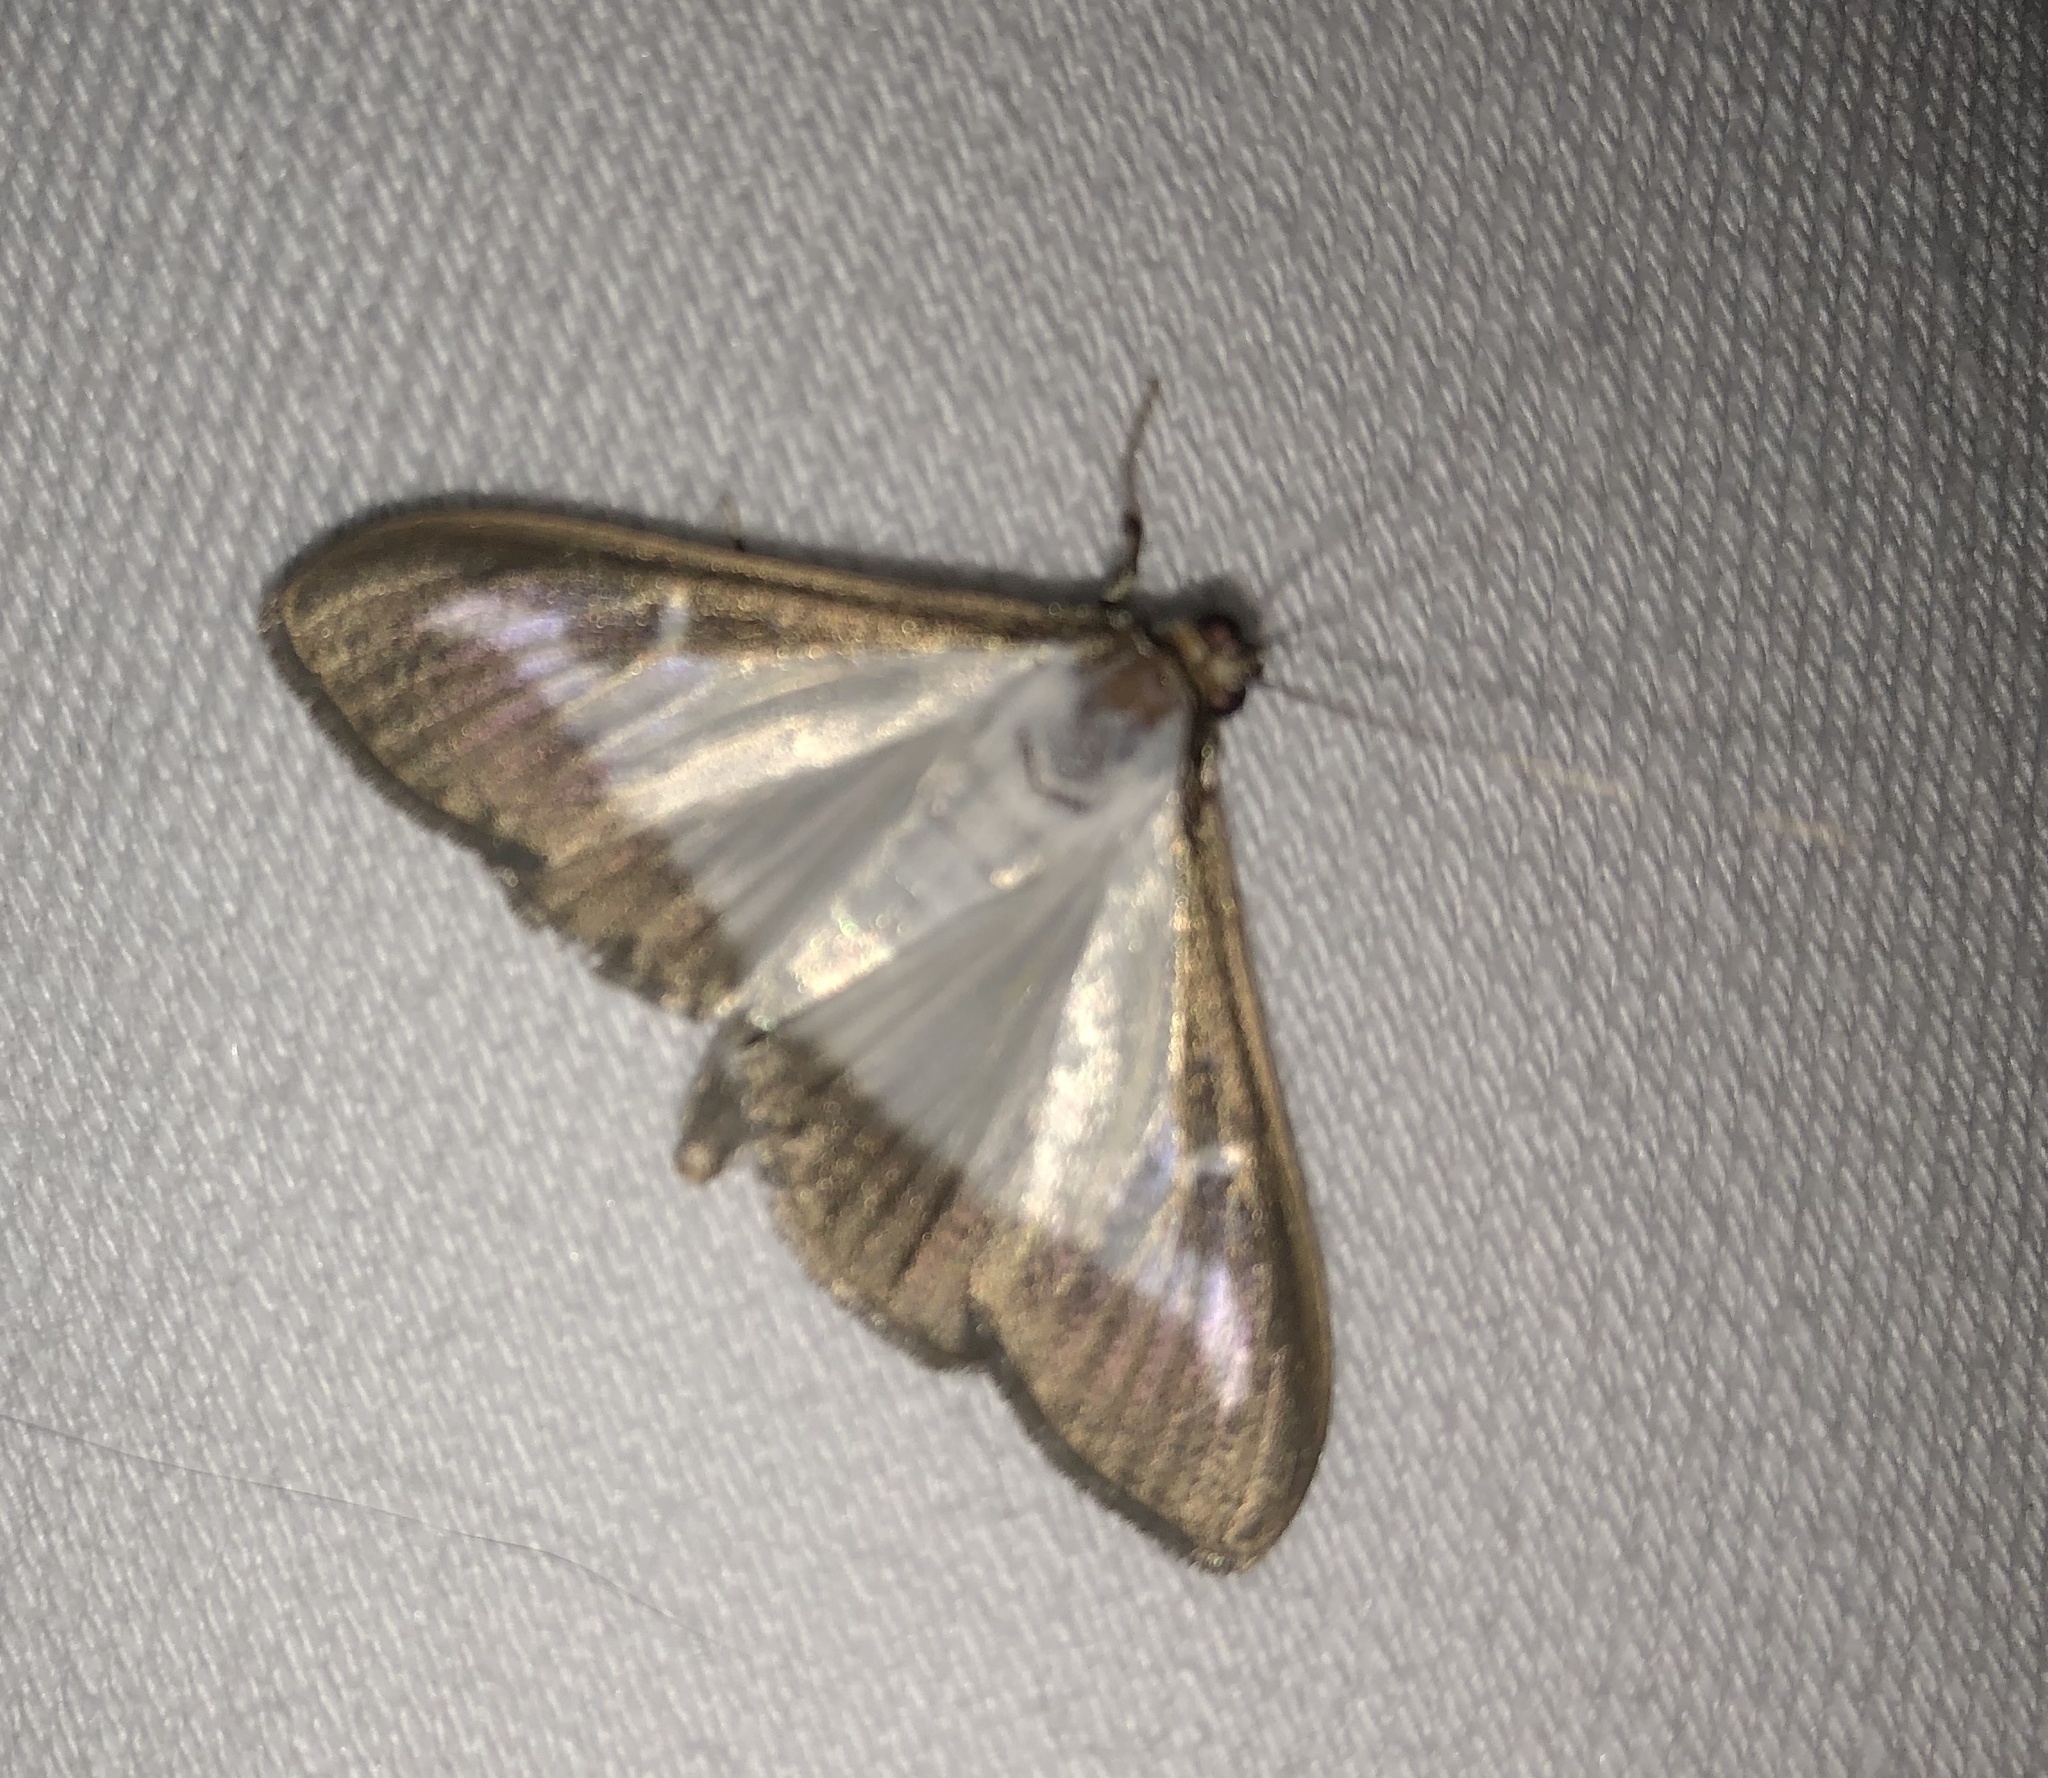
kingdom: Animalia
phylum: Arthropoda
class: Insecta
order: Lepidoptera
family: Crambidae
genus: Cydalima
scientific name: Cydalima perspectalis
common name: Box tree moth
